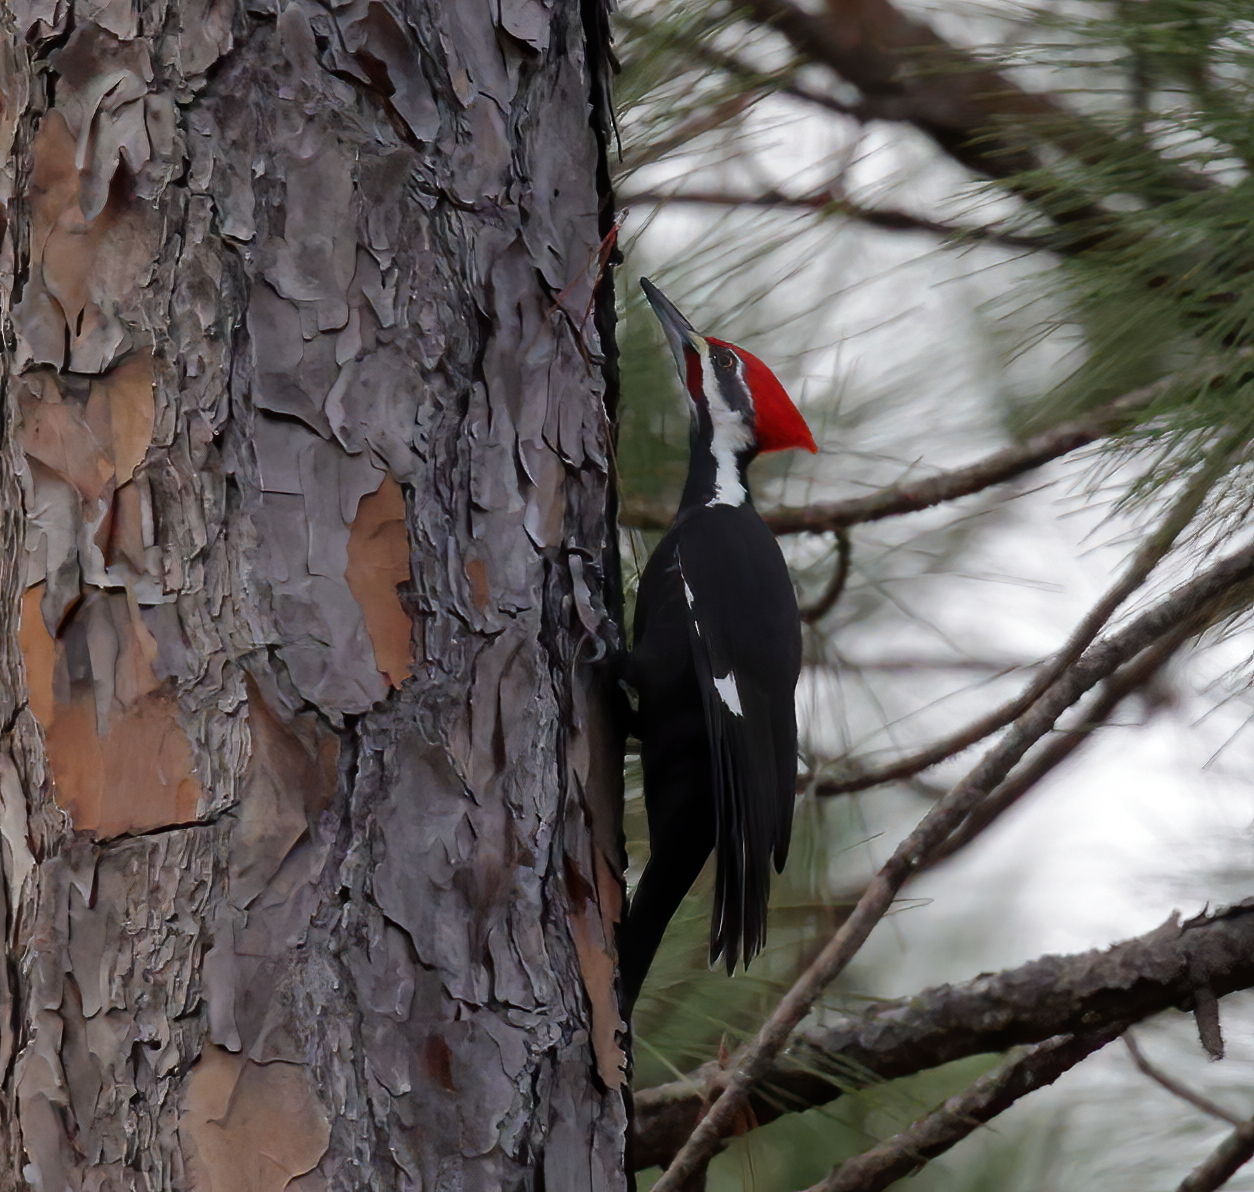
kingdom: Animalia
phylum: Chordata
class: Aves
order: Piciformes
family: Picidae
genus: Dryocopus
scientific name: Dryocopus pileatus
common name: Pileated woodpecker
